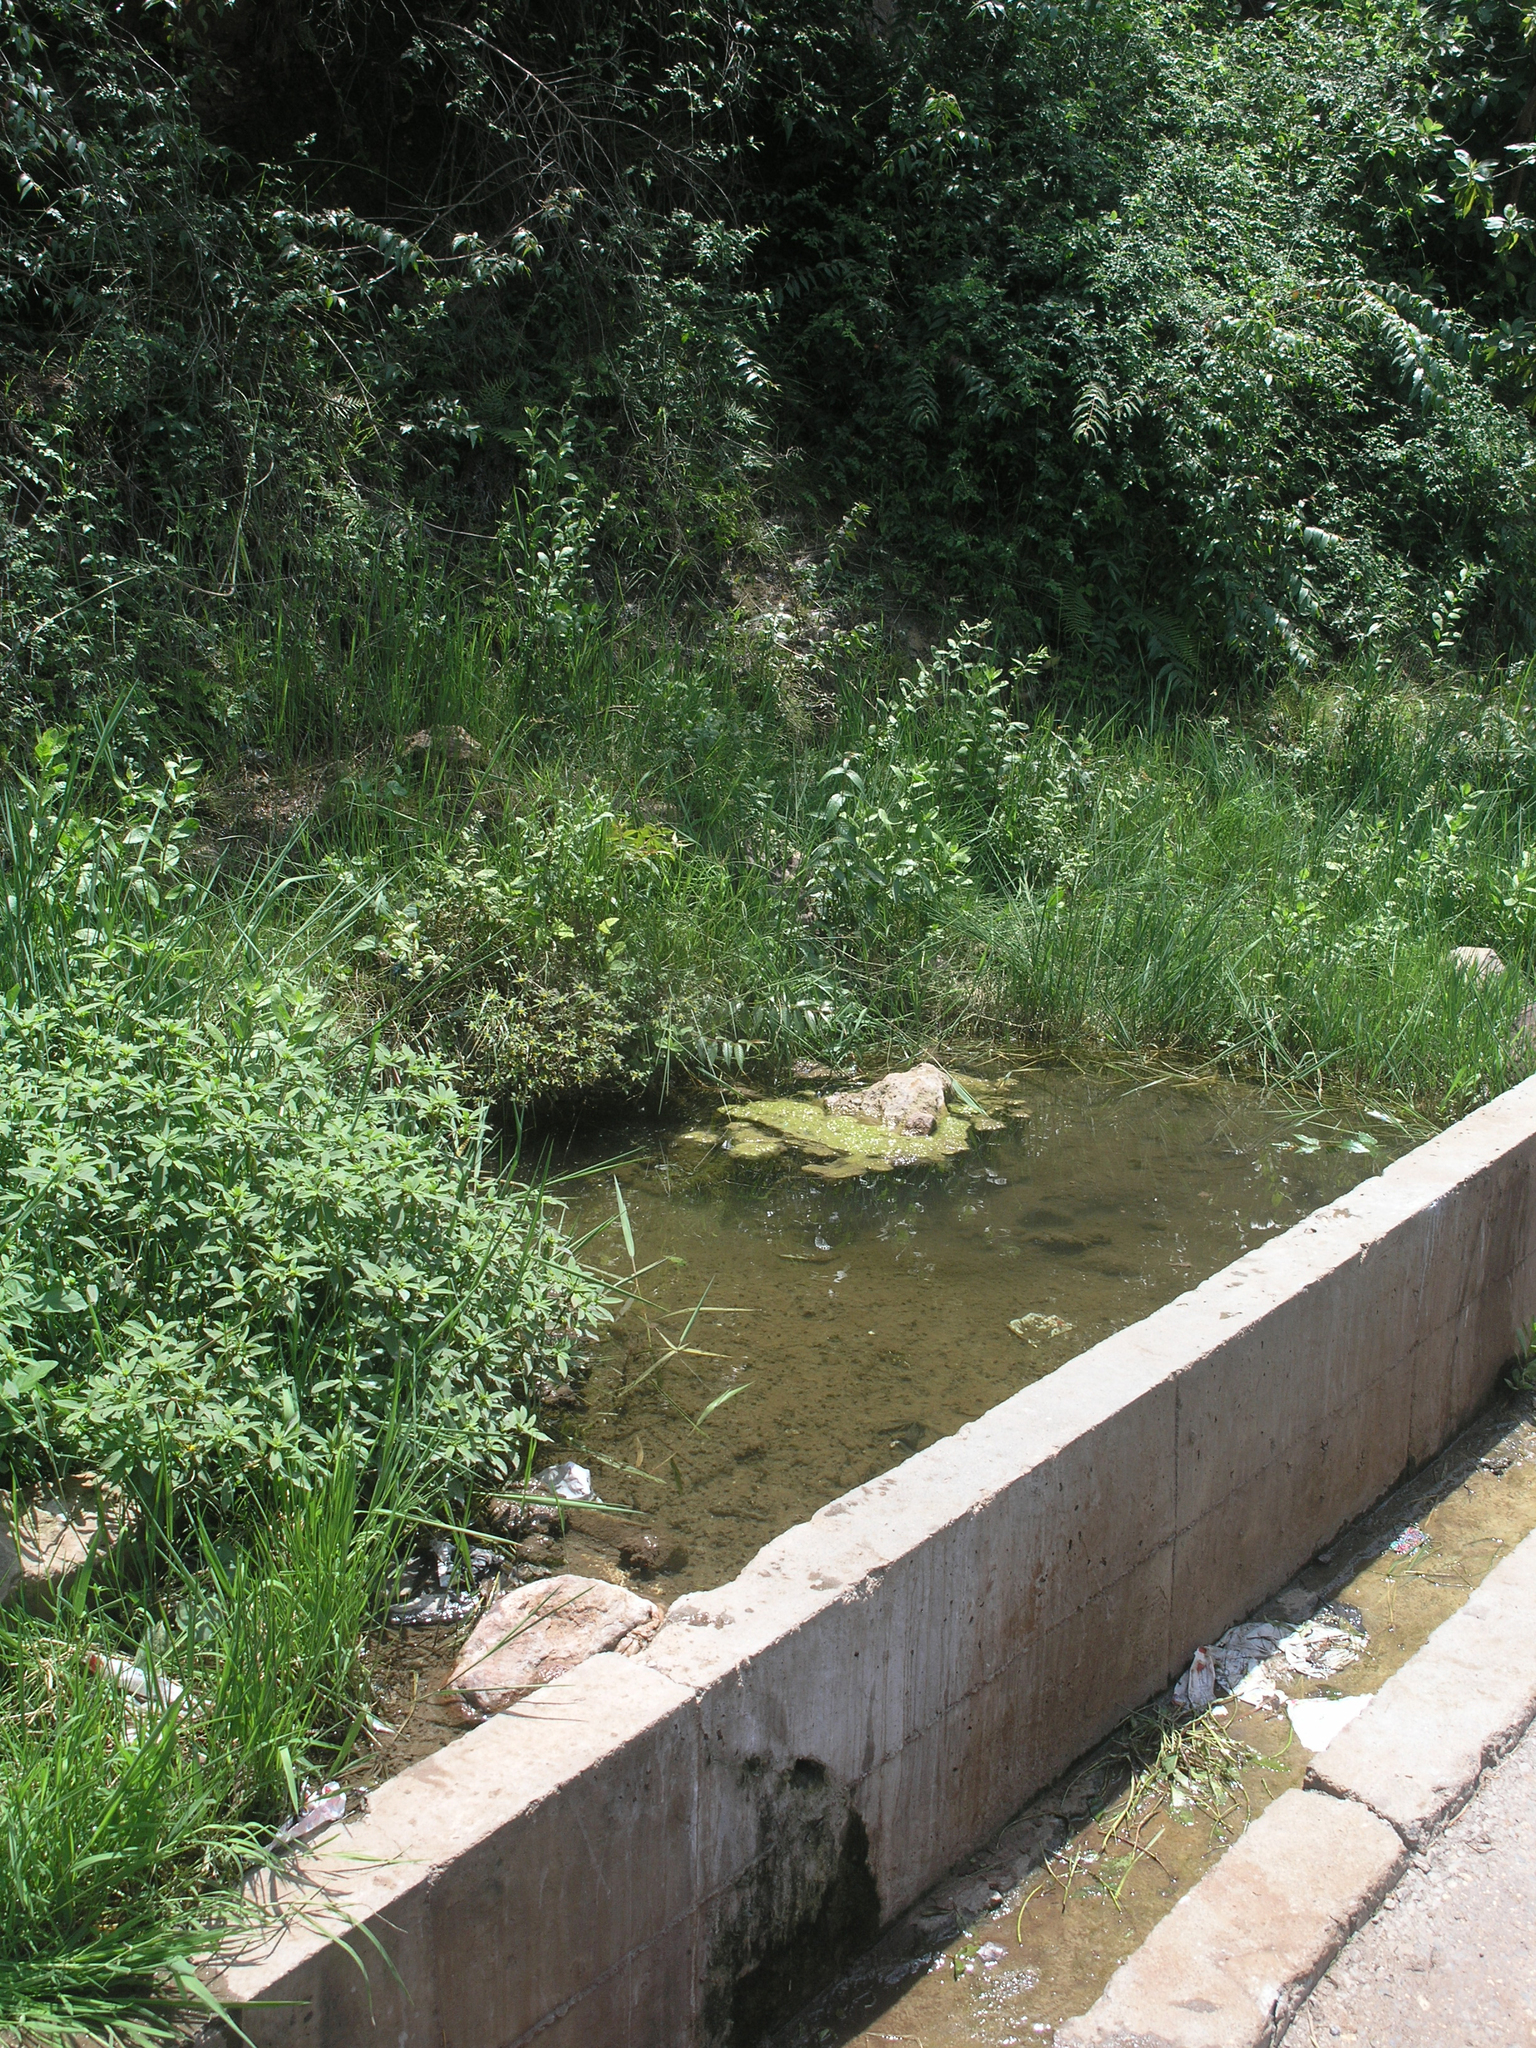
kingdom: Animalia
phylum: Arthropoda
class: Insecta
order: Odonata
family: Libellulidae
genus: Palpopleura
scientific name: Palpopleura portia
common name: Portia widow
